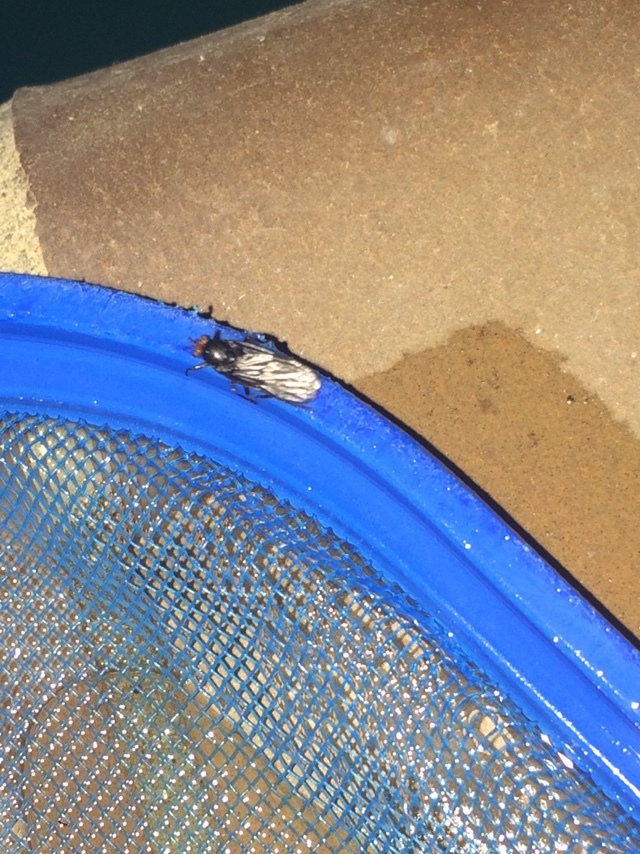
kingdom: Animalia
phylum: Arthropoda
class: Insecta
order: Diptera
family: Stratiomyidae
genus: Inopus
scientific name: Inopus rubriceps
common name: Soldier fly
